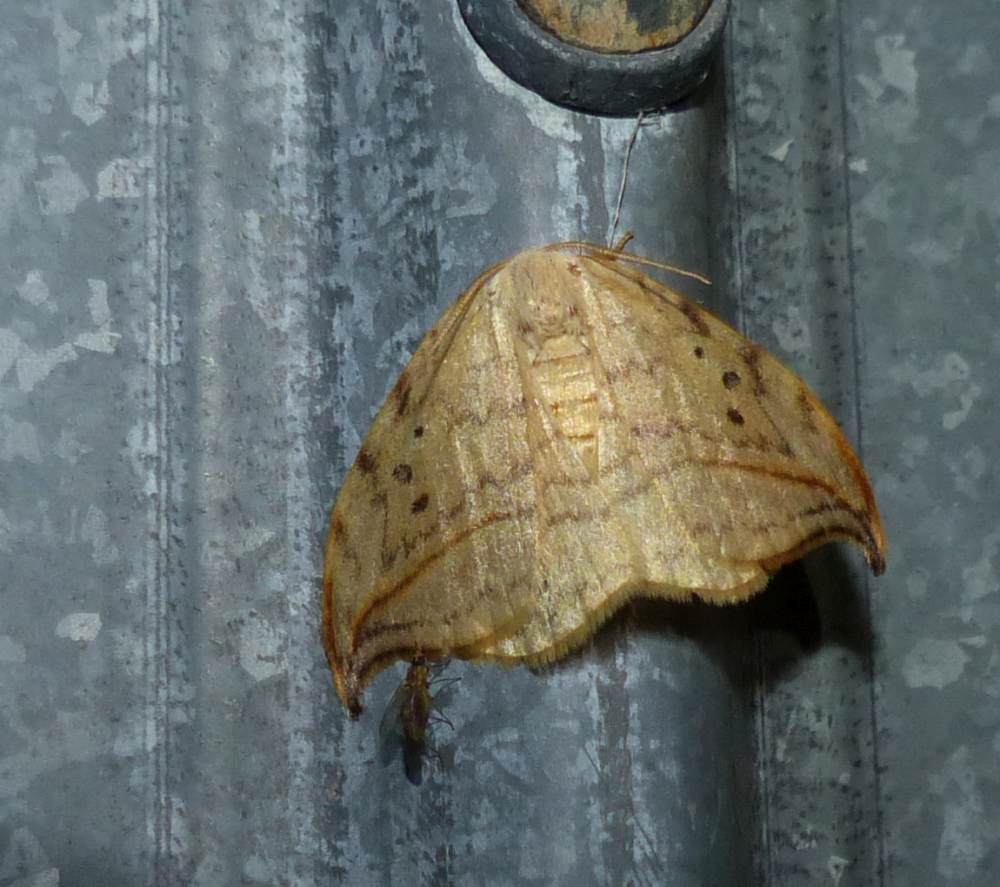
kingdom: Animalia
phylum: Arthropoda
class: Insecta
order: Lepidoptera
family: Drepanidae
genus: Drepana
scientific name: Drepana arcuata
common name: Arched hooktip moth
